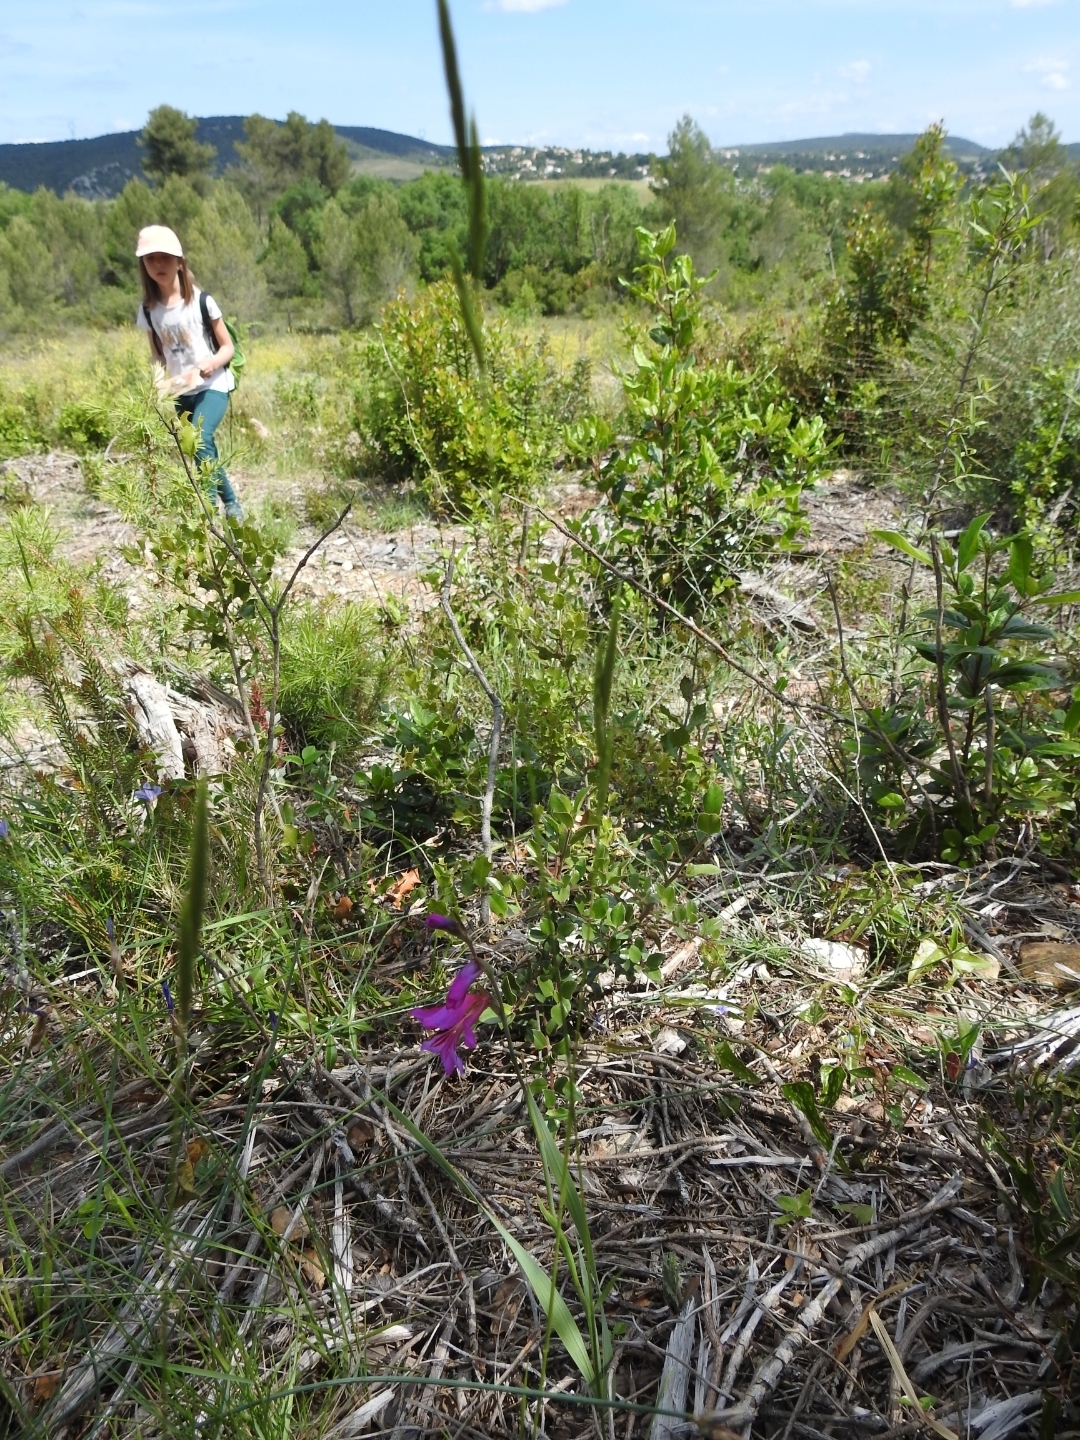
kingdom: Plantae
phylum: Tracheophyta
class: Liliopsida
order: Asparagales
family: Iridaceae
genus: Gladiolus
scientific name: Gladiolus dubius
